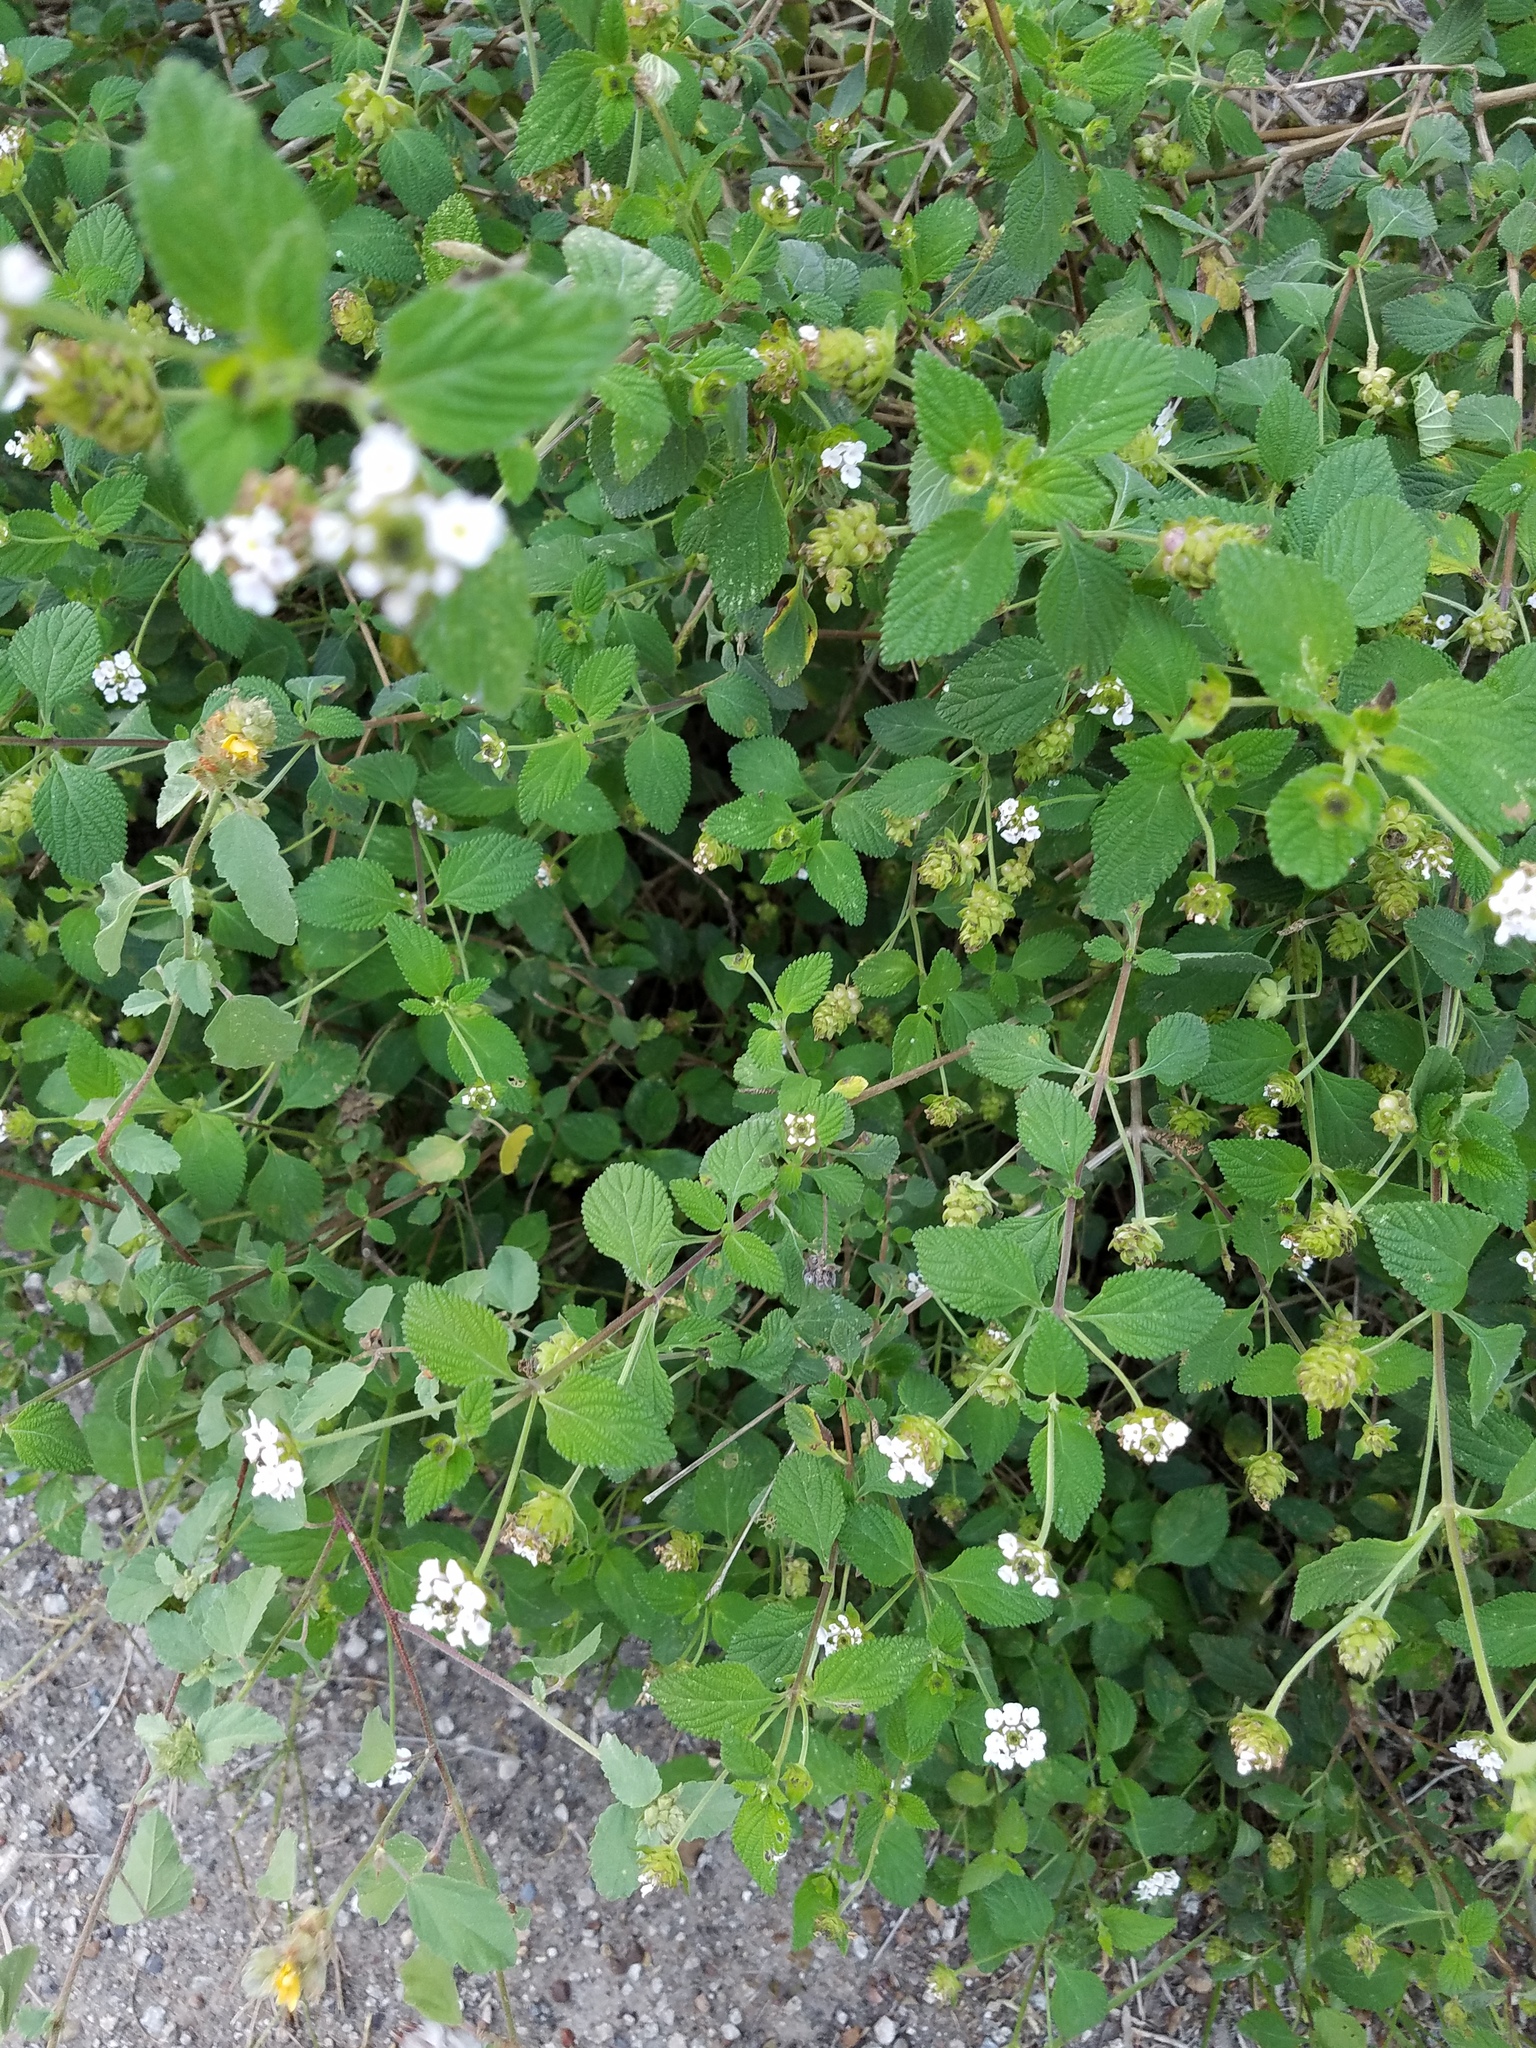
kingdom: Plantae
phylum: Tracheophyta
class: Magnoliopsida
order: Lamiales
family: Verbenaceae
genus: Lantana
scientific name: Lantana velutina
